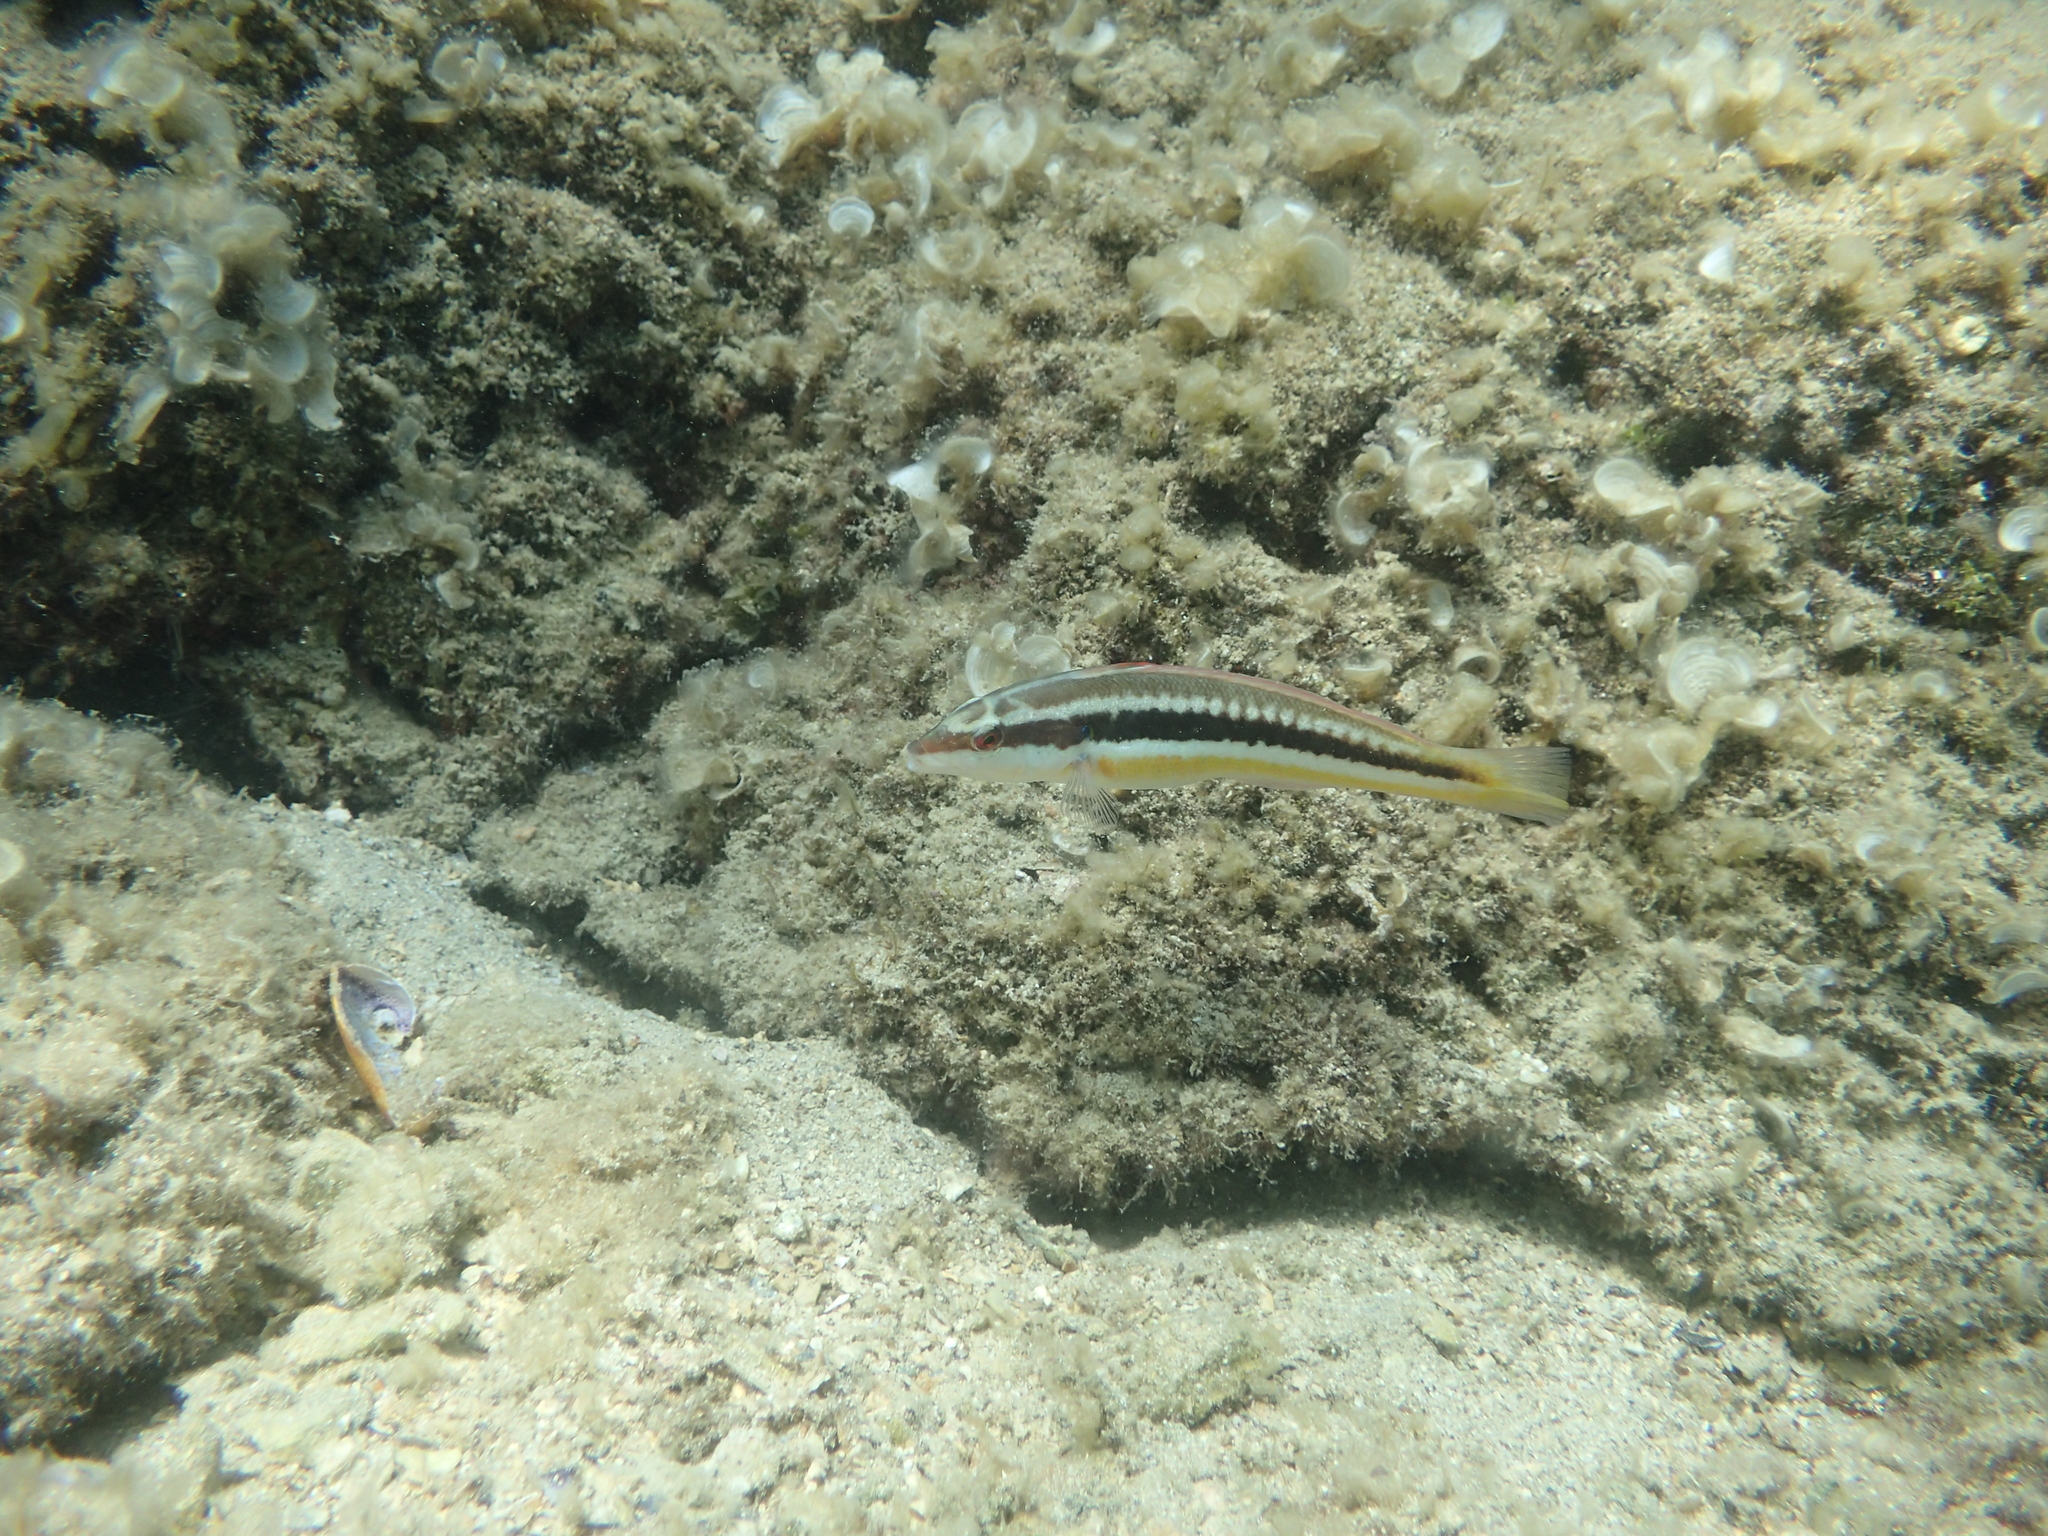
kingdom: Animalia
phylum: Chordata
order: Perciformes
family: Labridae
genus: Coris
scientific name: Coris julis
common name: Rainbow wrasse
